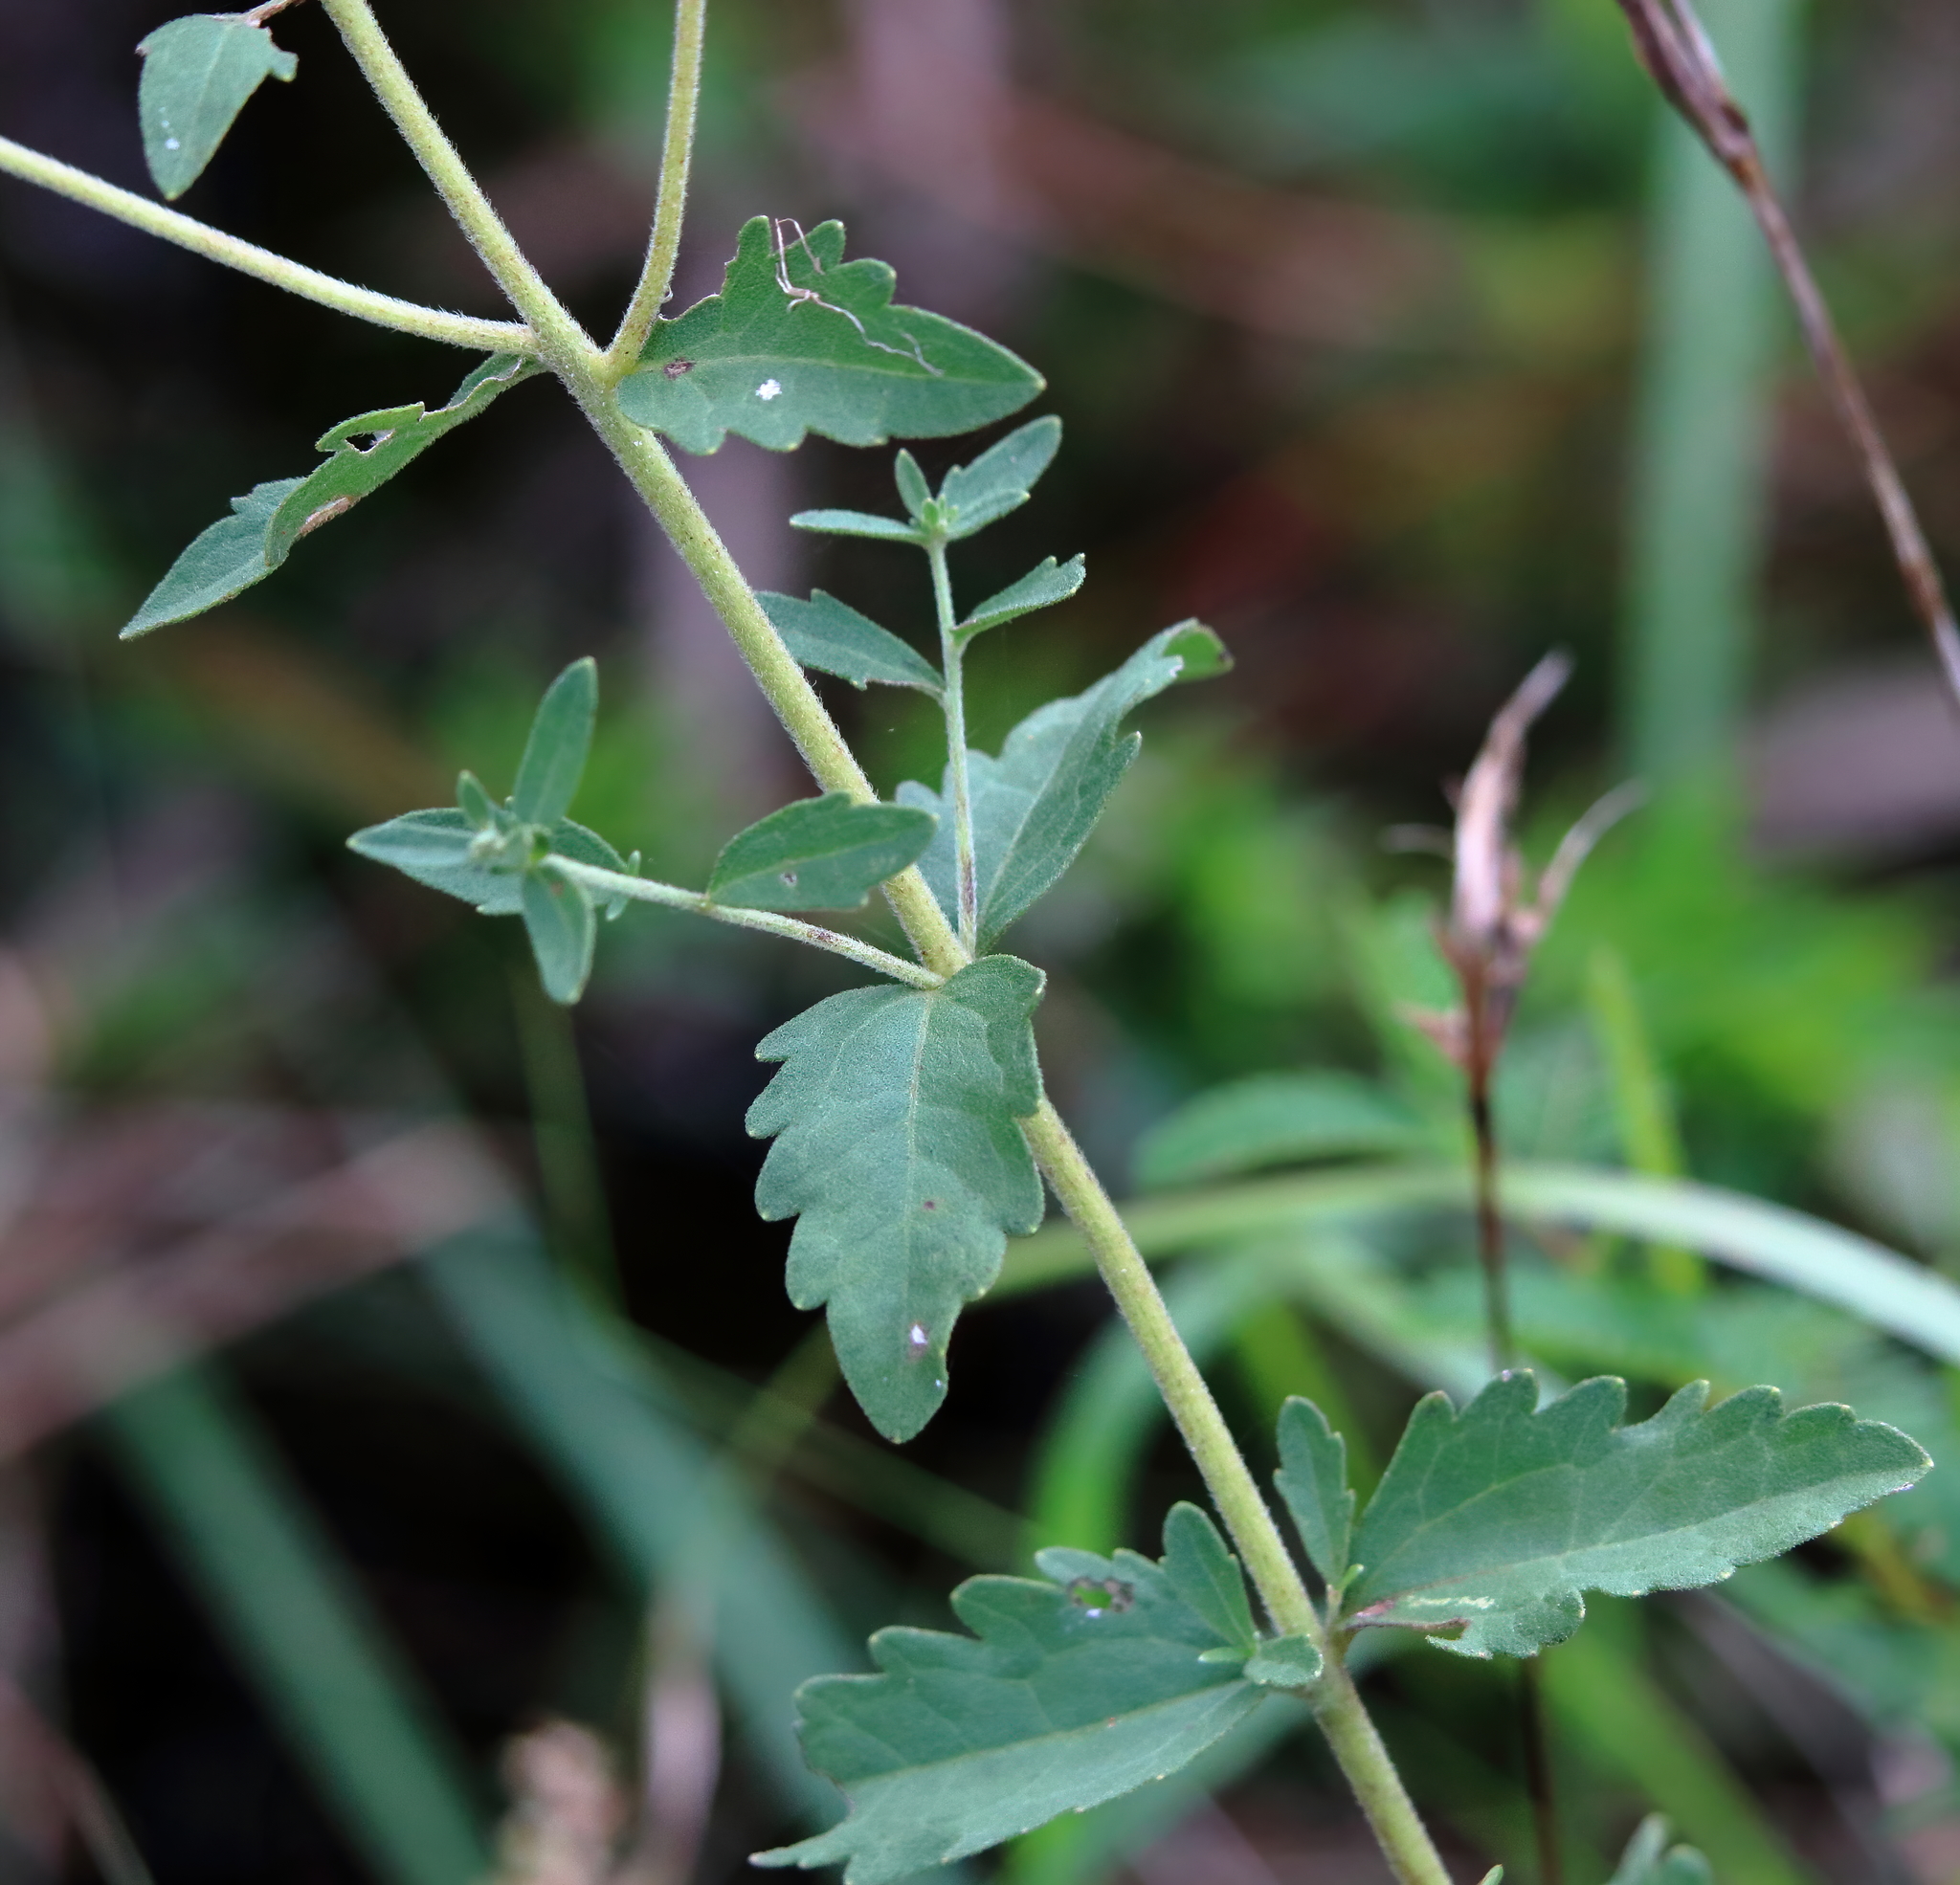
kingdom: Plantae
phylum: Tracheophyta
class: Magnoliopsida
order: Asterales
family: Asteraceae
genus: Eupatorium
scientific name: Eupatorium semiserratum
